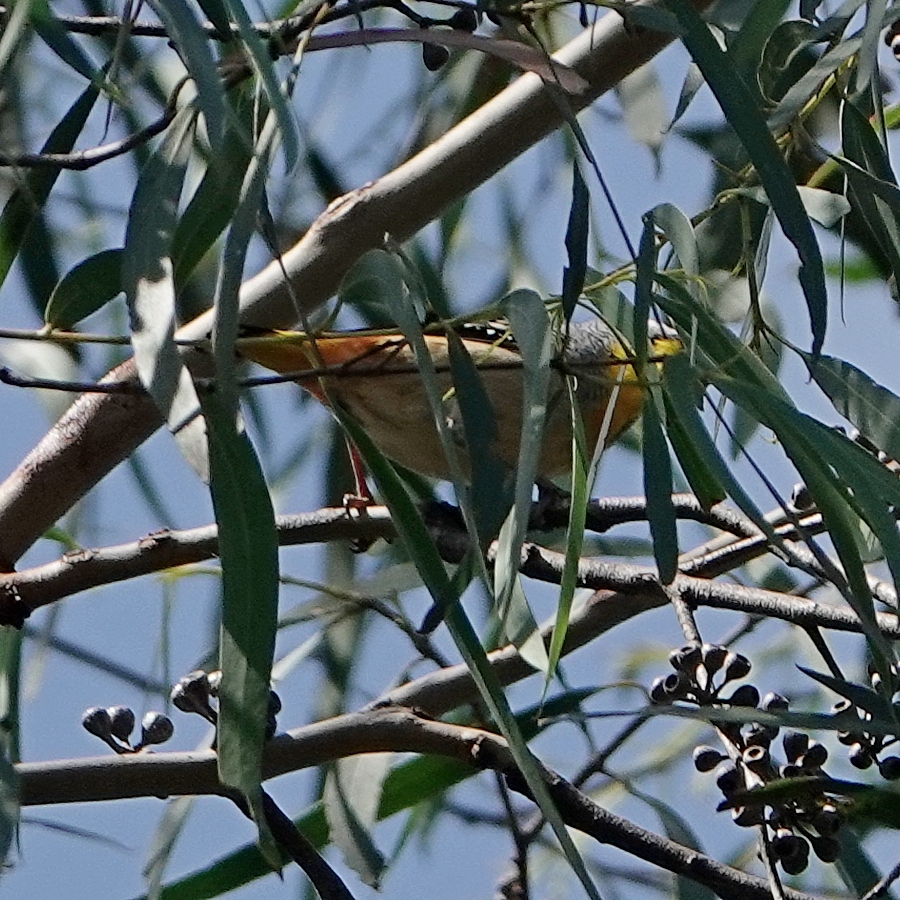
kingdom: Animalia
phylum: Chordata
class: Aves
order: Passeriformes
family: Pardalotidae
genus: Pardalotus
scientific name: Pardalotus punctatus
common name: Spotted pardalote
